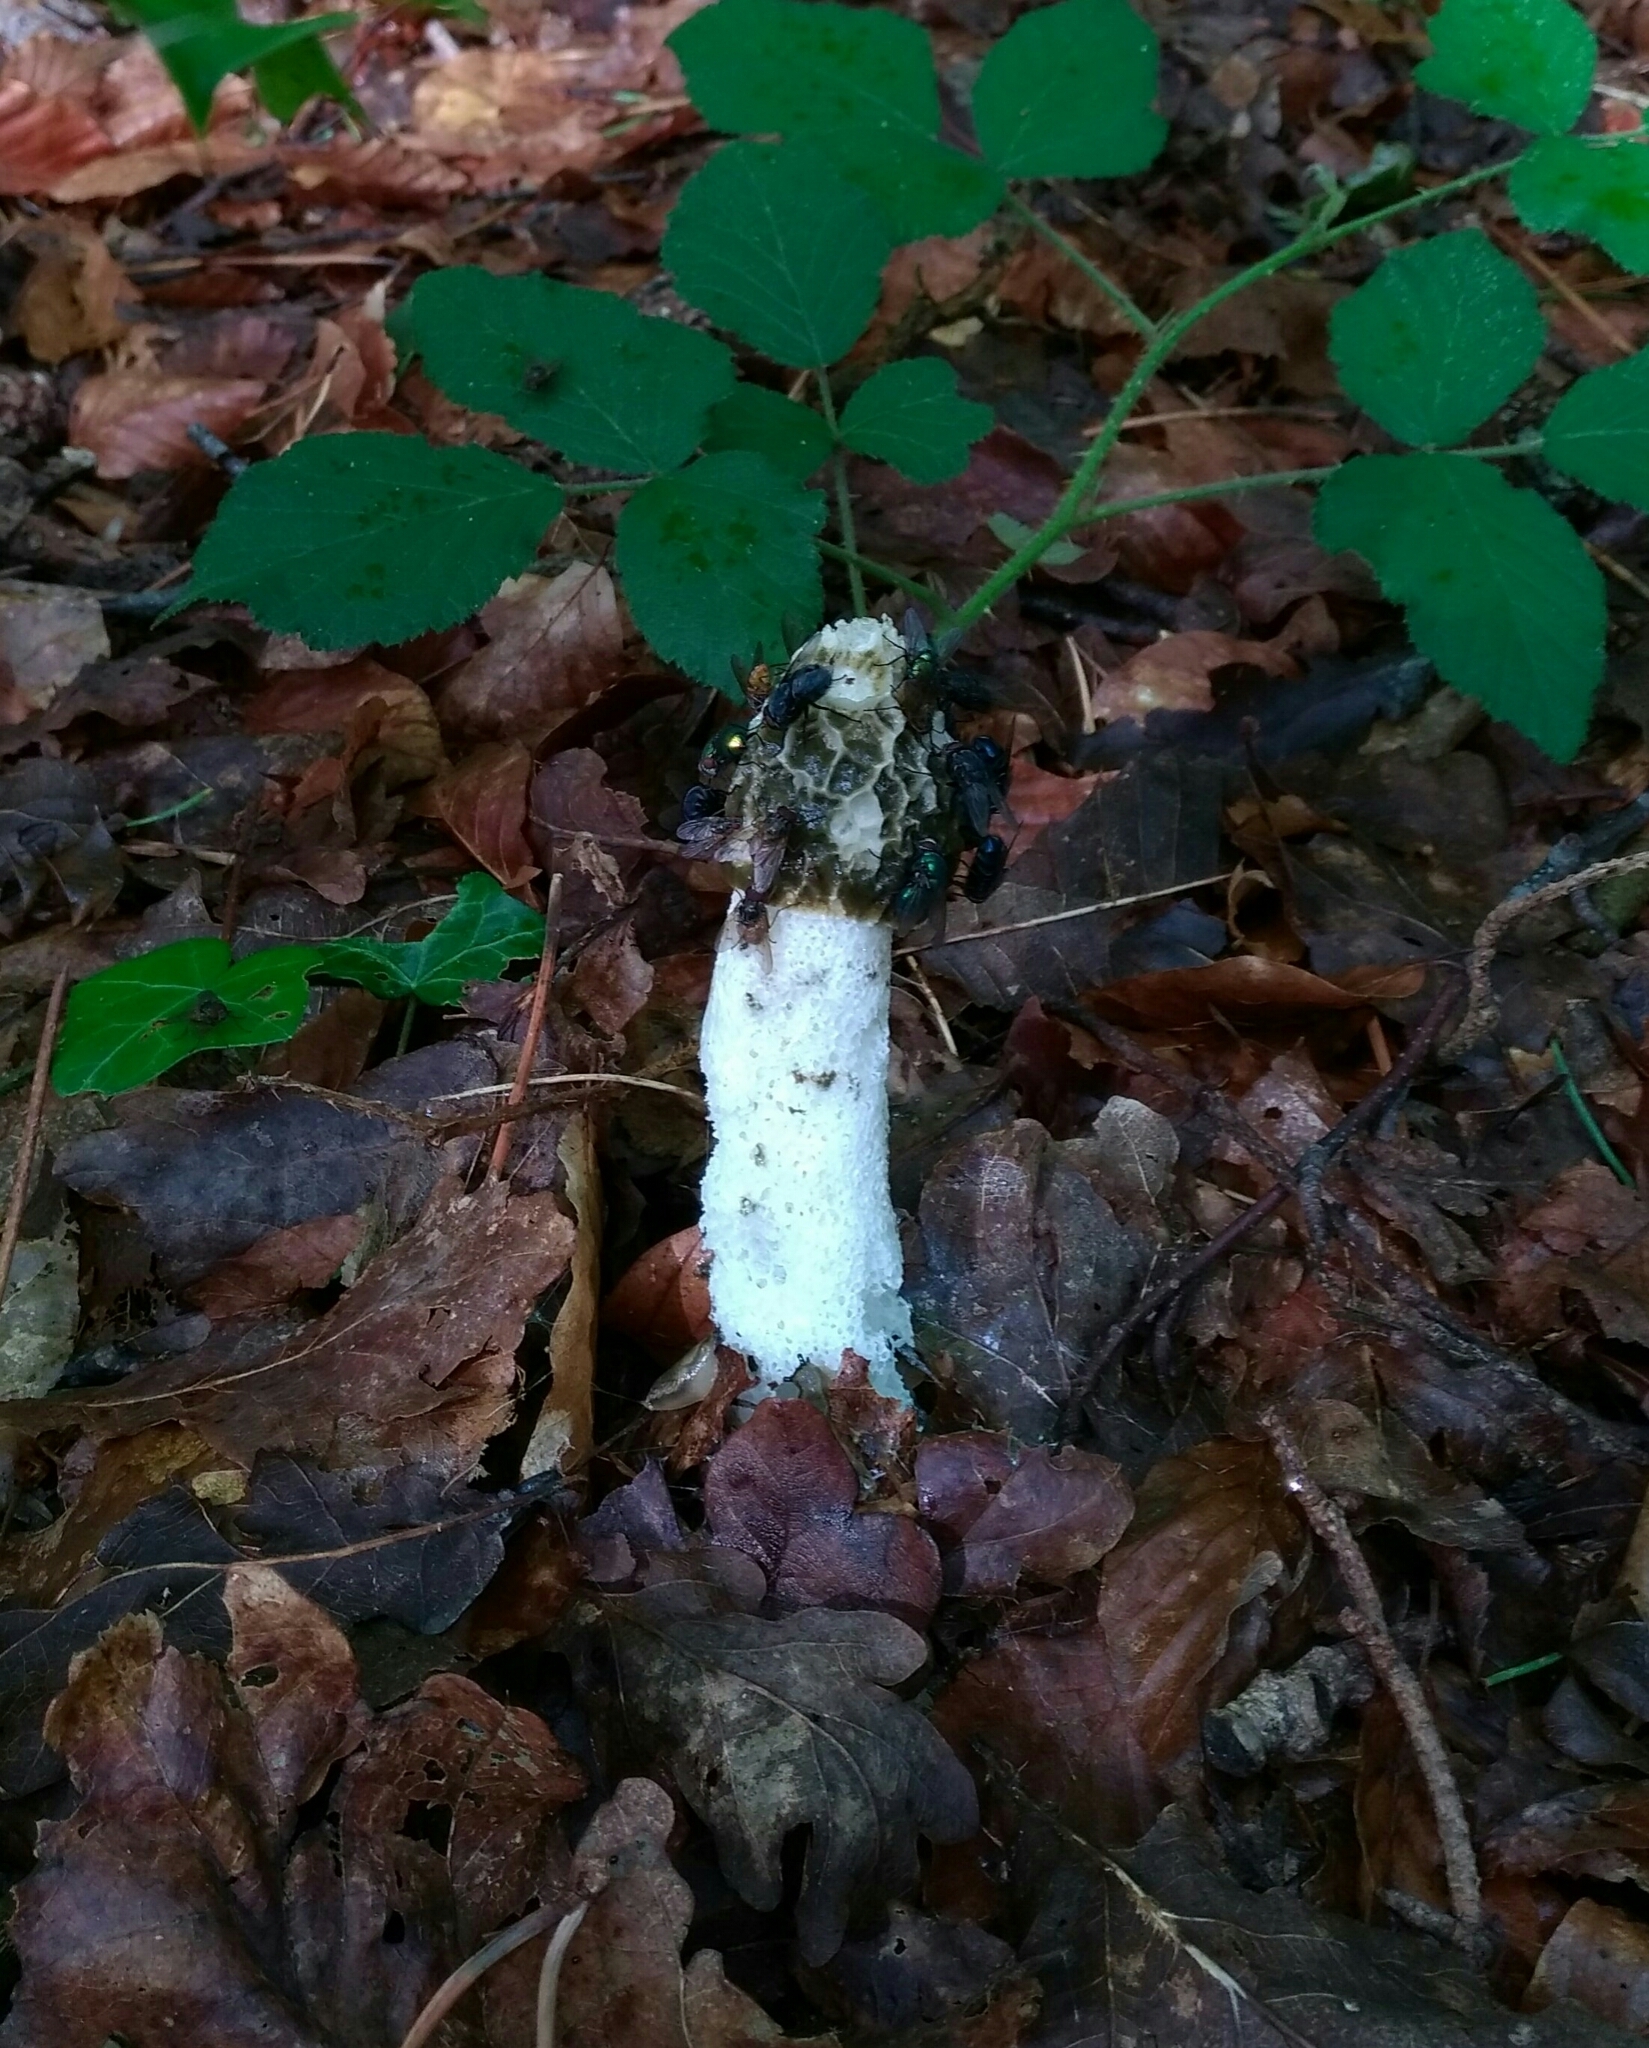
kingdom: Fungi
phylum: Basidiomycota
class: Agaricomycetes
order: Phallales
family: Phallaceae
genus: Phallus
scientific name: Phallus impudicus
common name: Common stinkhorn
